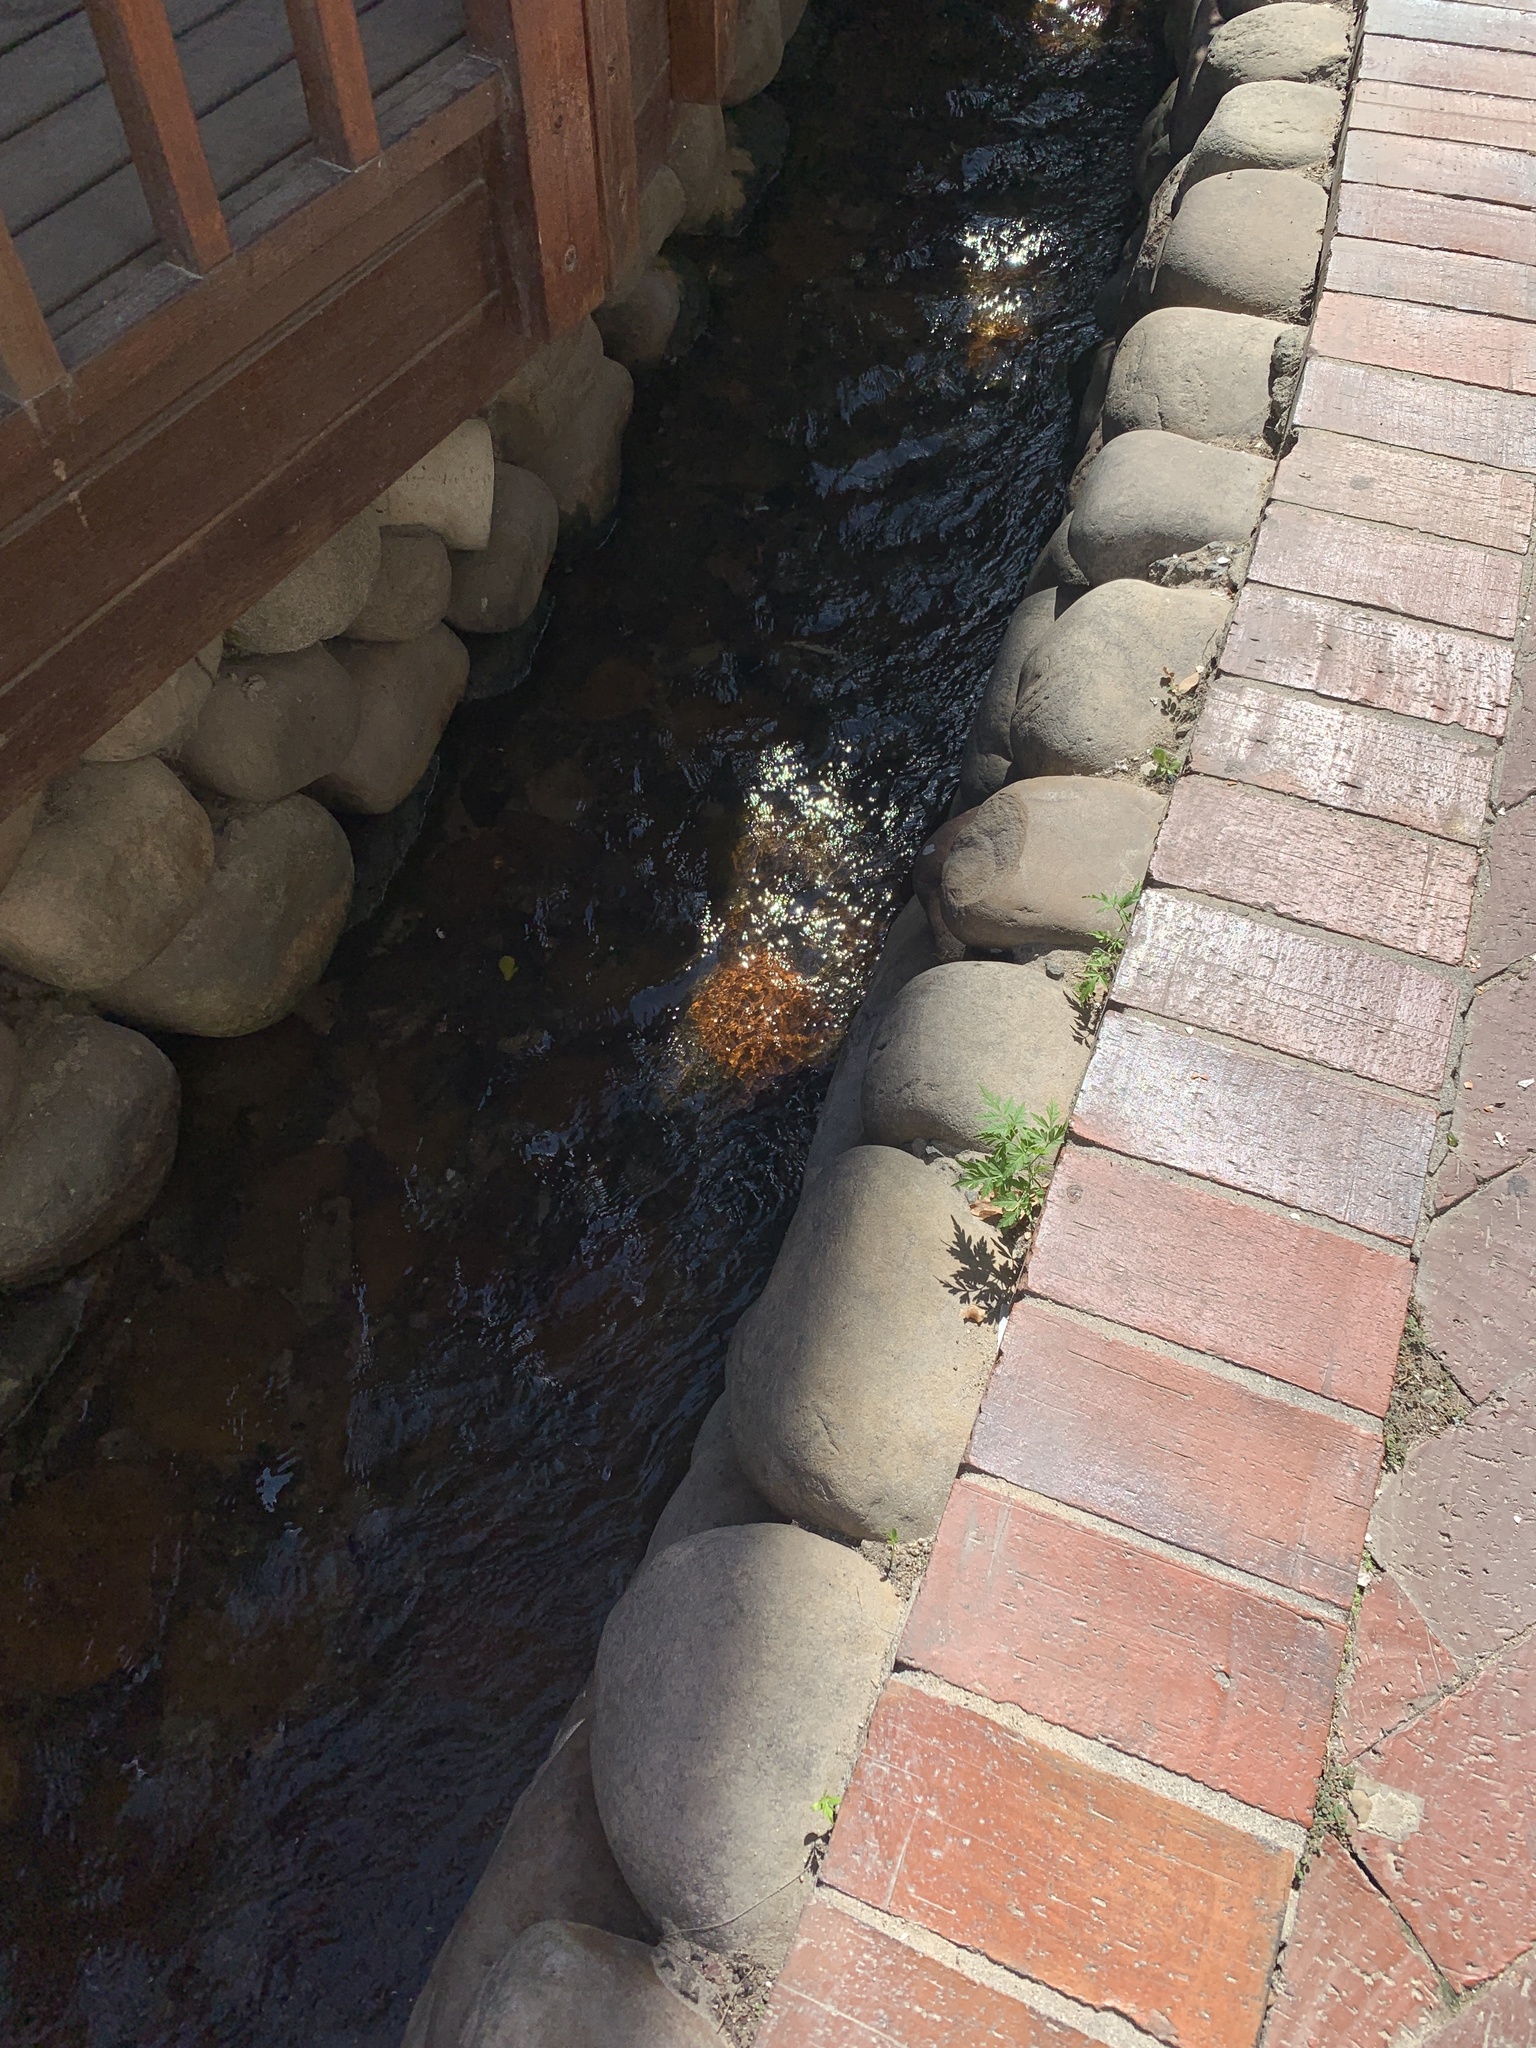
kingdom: Plantae
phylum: Tracheophyta
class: Magnoliopsida
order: Sapindales
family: Meliaceae
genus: Melia
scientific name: Melia azedarach
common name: Chinaberrytree
